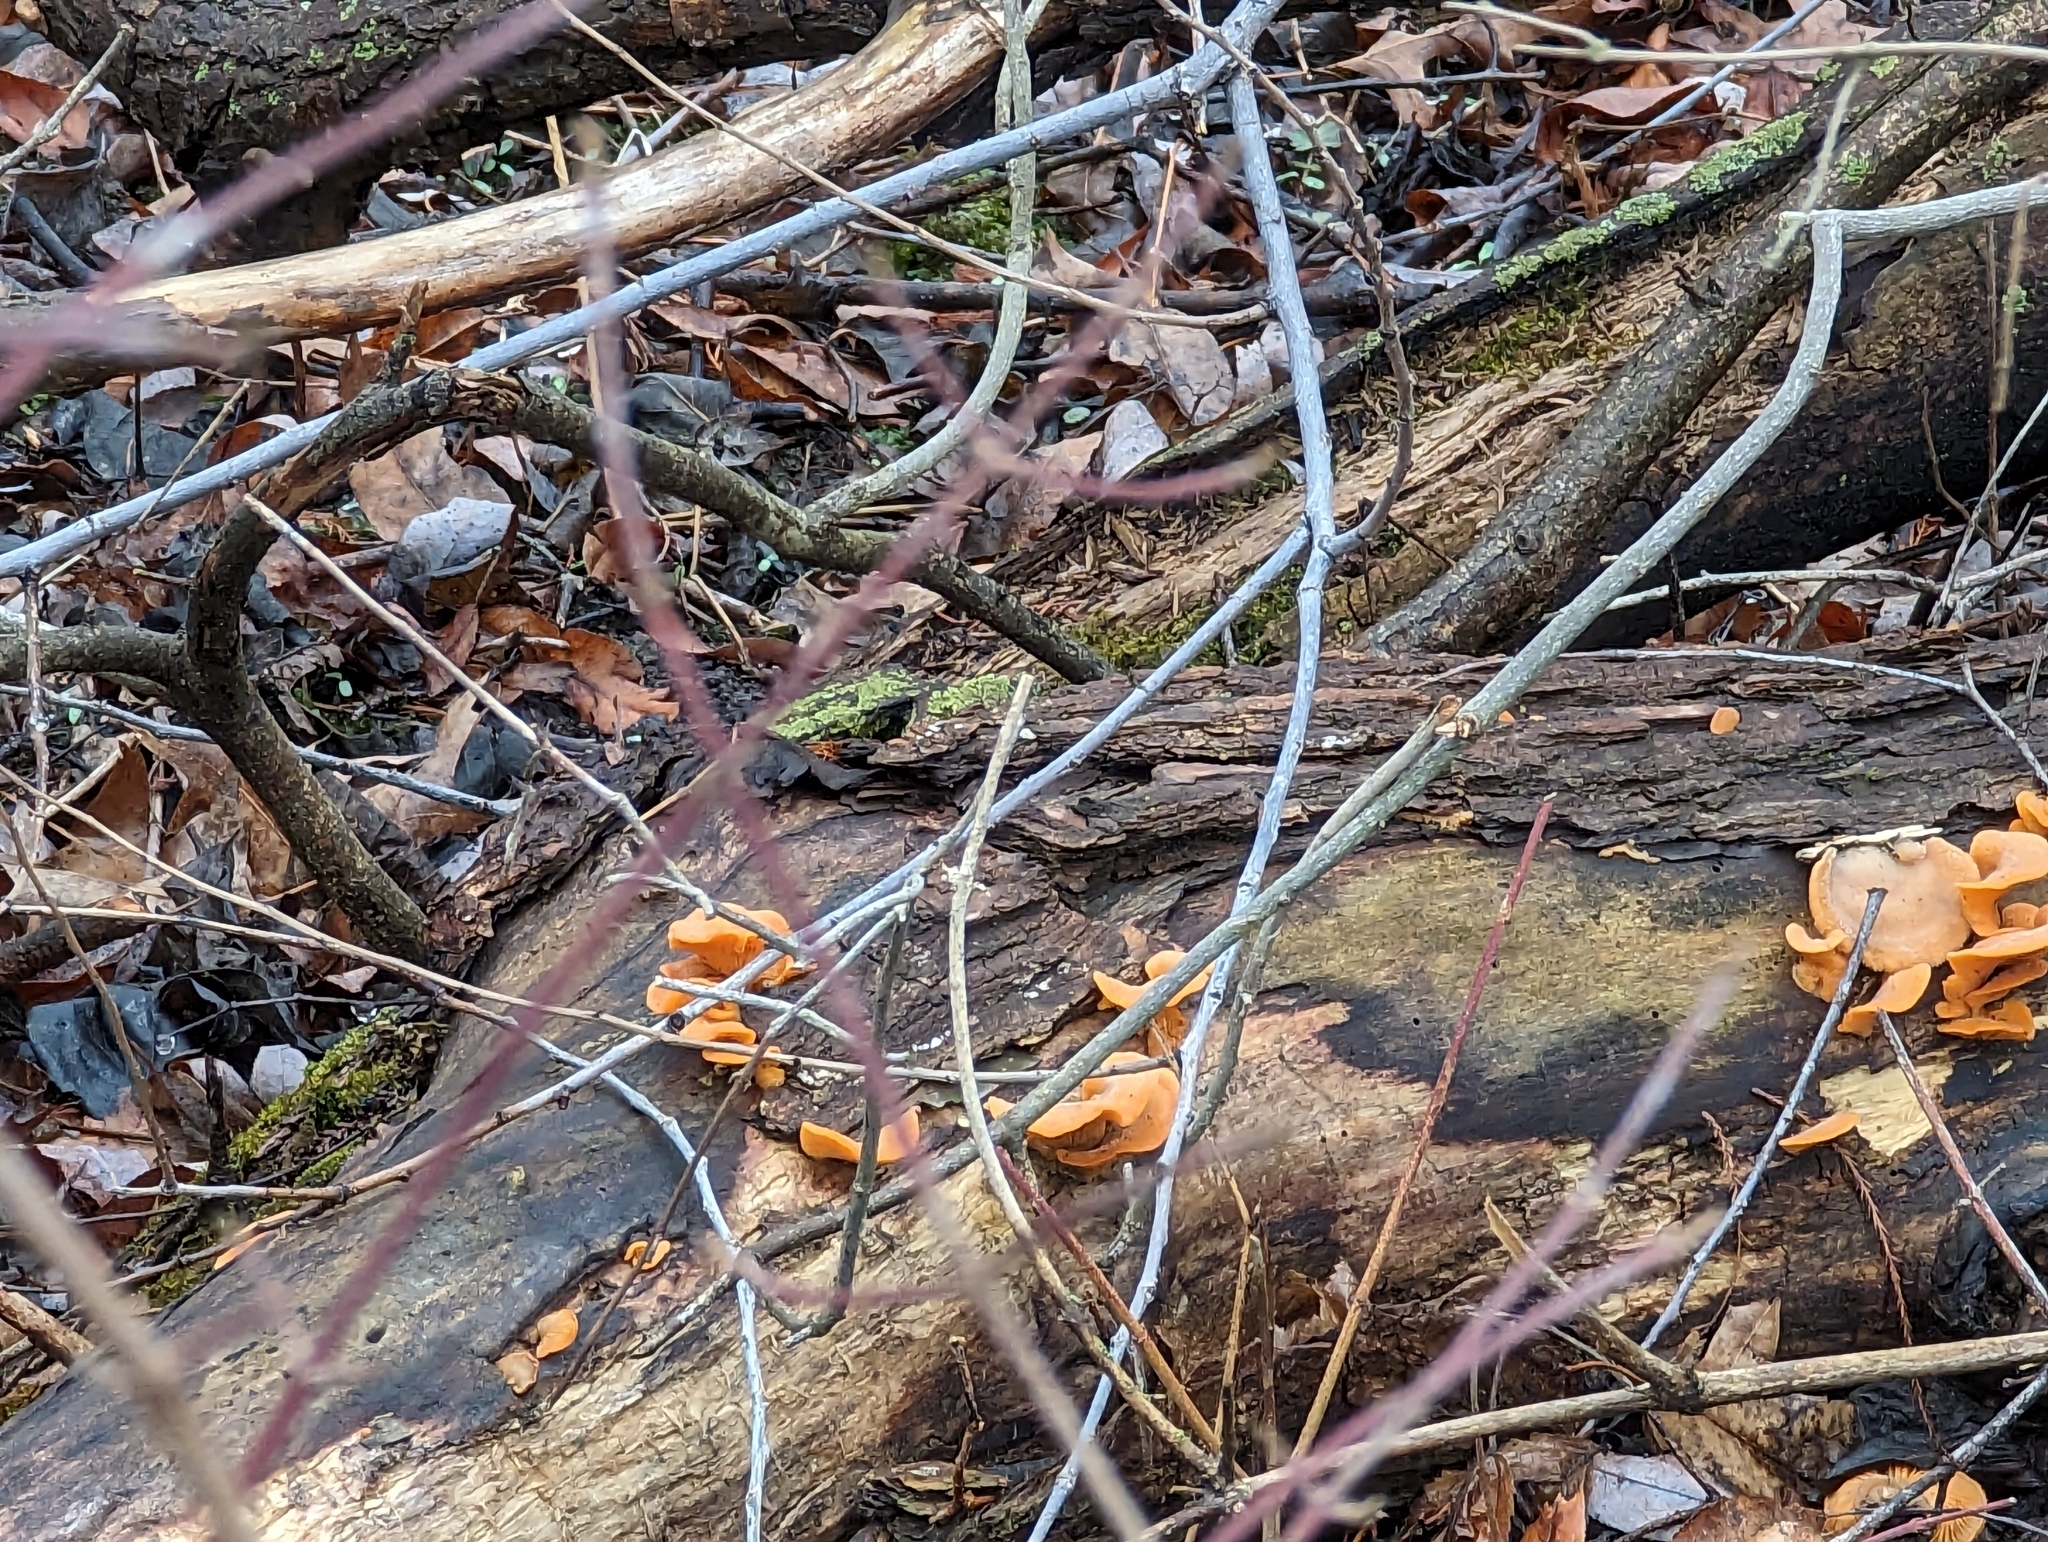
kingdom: Fungi
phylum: Basidiomycota
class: Agaricomycetes
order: Agaricales
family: Phyllotopsidaceae
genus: Phyllotopsis
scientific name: Phyllotopsis nidulans
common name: Orange mock oyster
